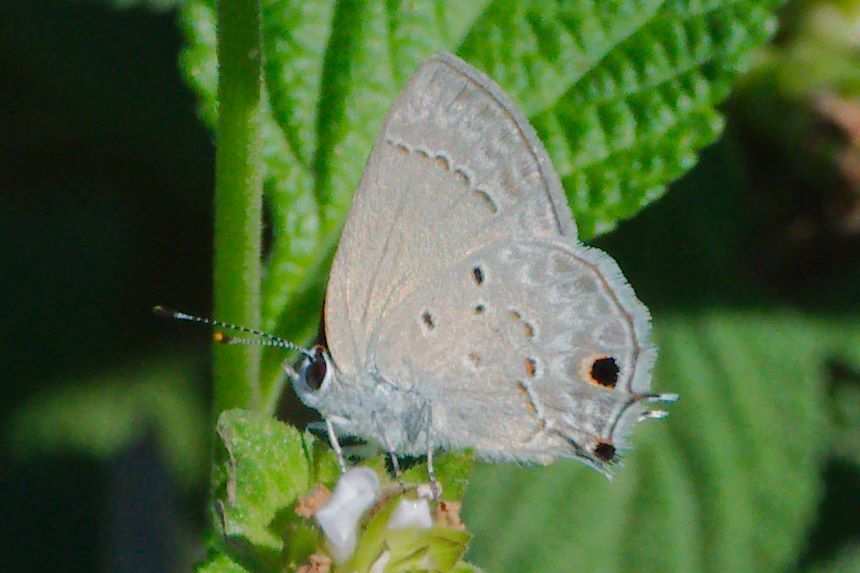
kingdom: Animalia
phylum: Arthropoda
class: Insecta
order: Lepidoptera
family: Lycaenidae
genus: Callicista
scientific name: Callicista columella
